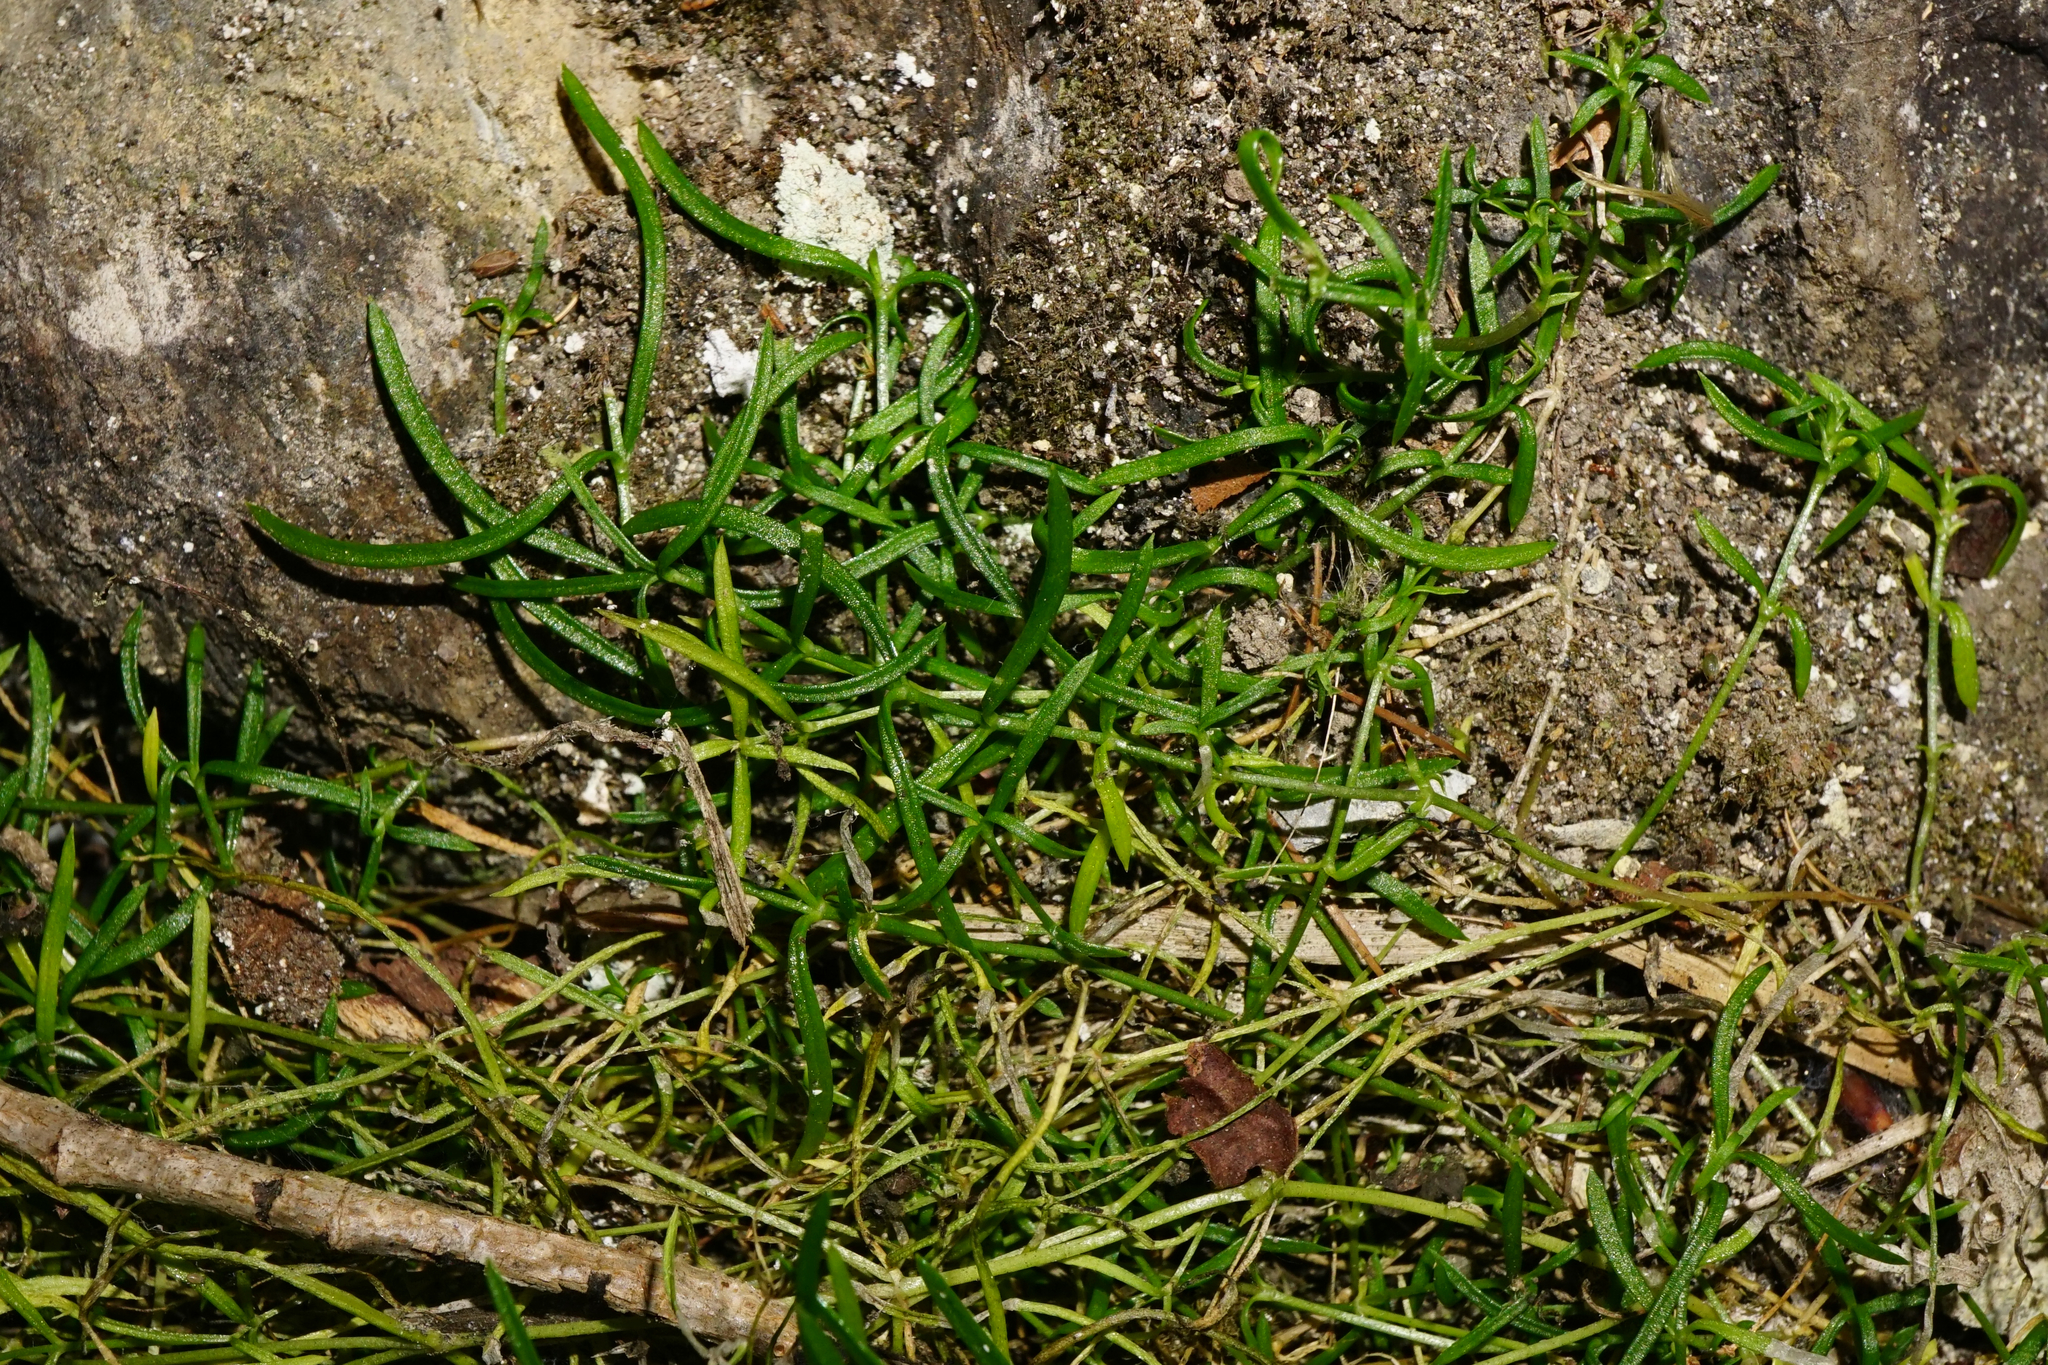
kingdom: Plantae
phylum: Tracheophyta
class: Magnoliopsida
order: Caryophyllales
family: Caryophyllaceae
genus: Moehringia
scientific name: Moehringia muscosa
